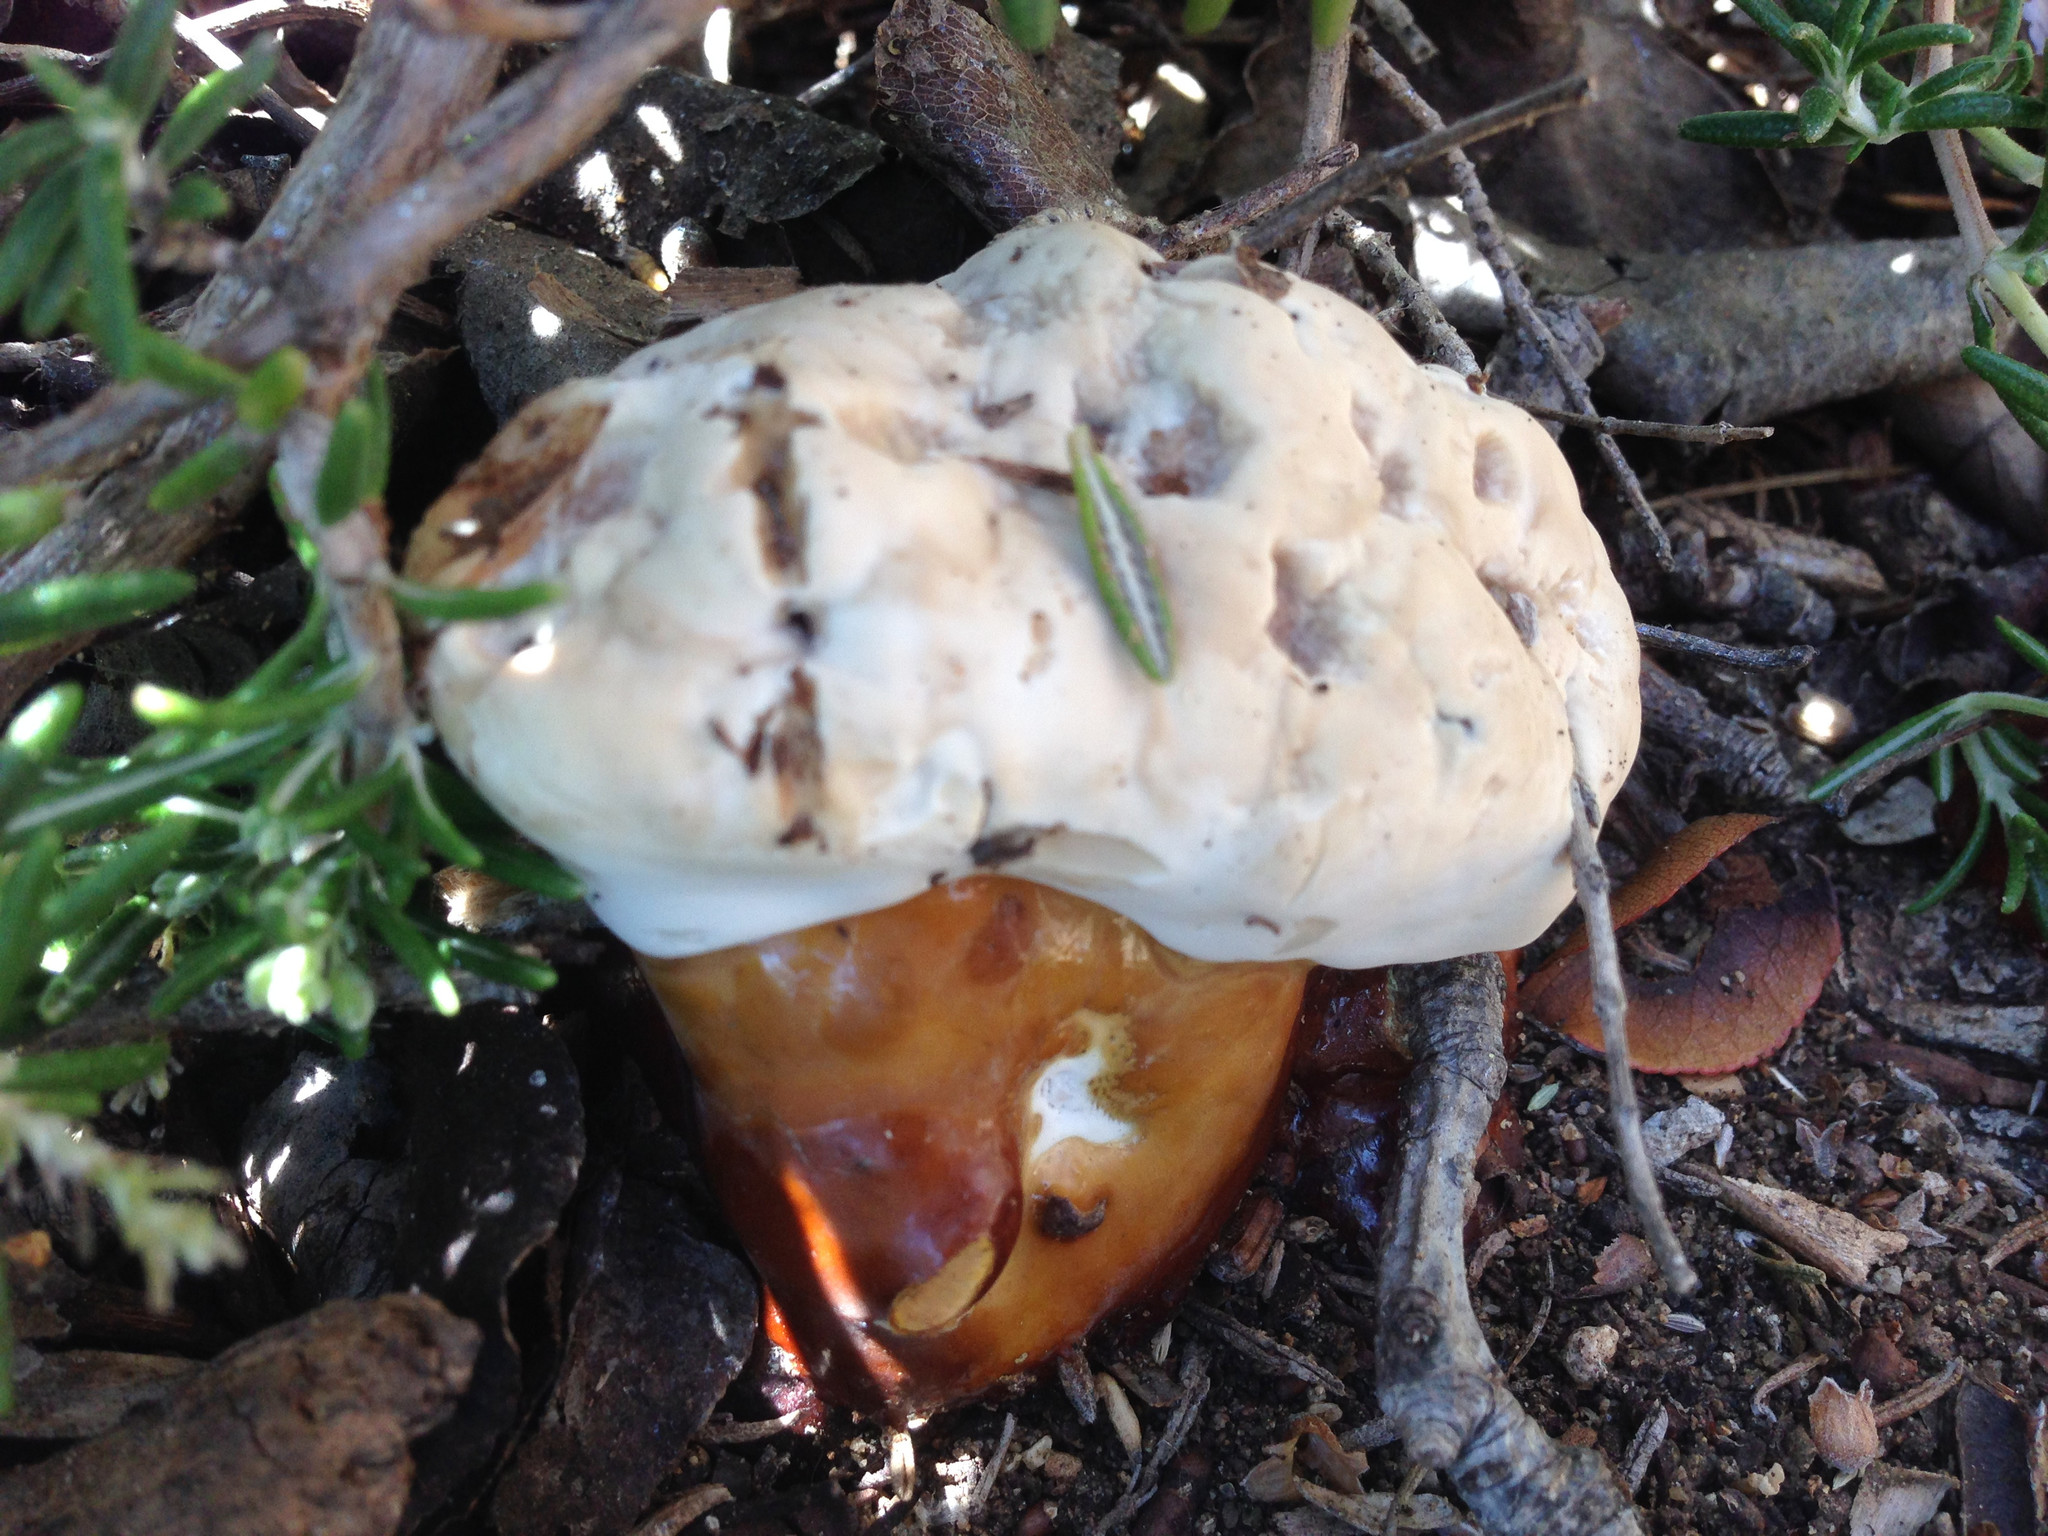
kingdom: Fungi
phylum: Basidiomycota
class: Agaricomycetes
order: Polyporales
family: Polyporaceae
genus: Ganoderma
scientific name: Ganoderma polychromum
